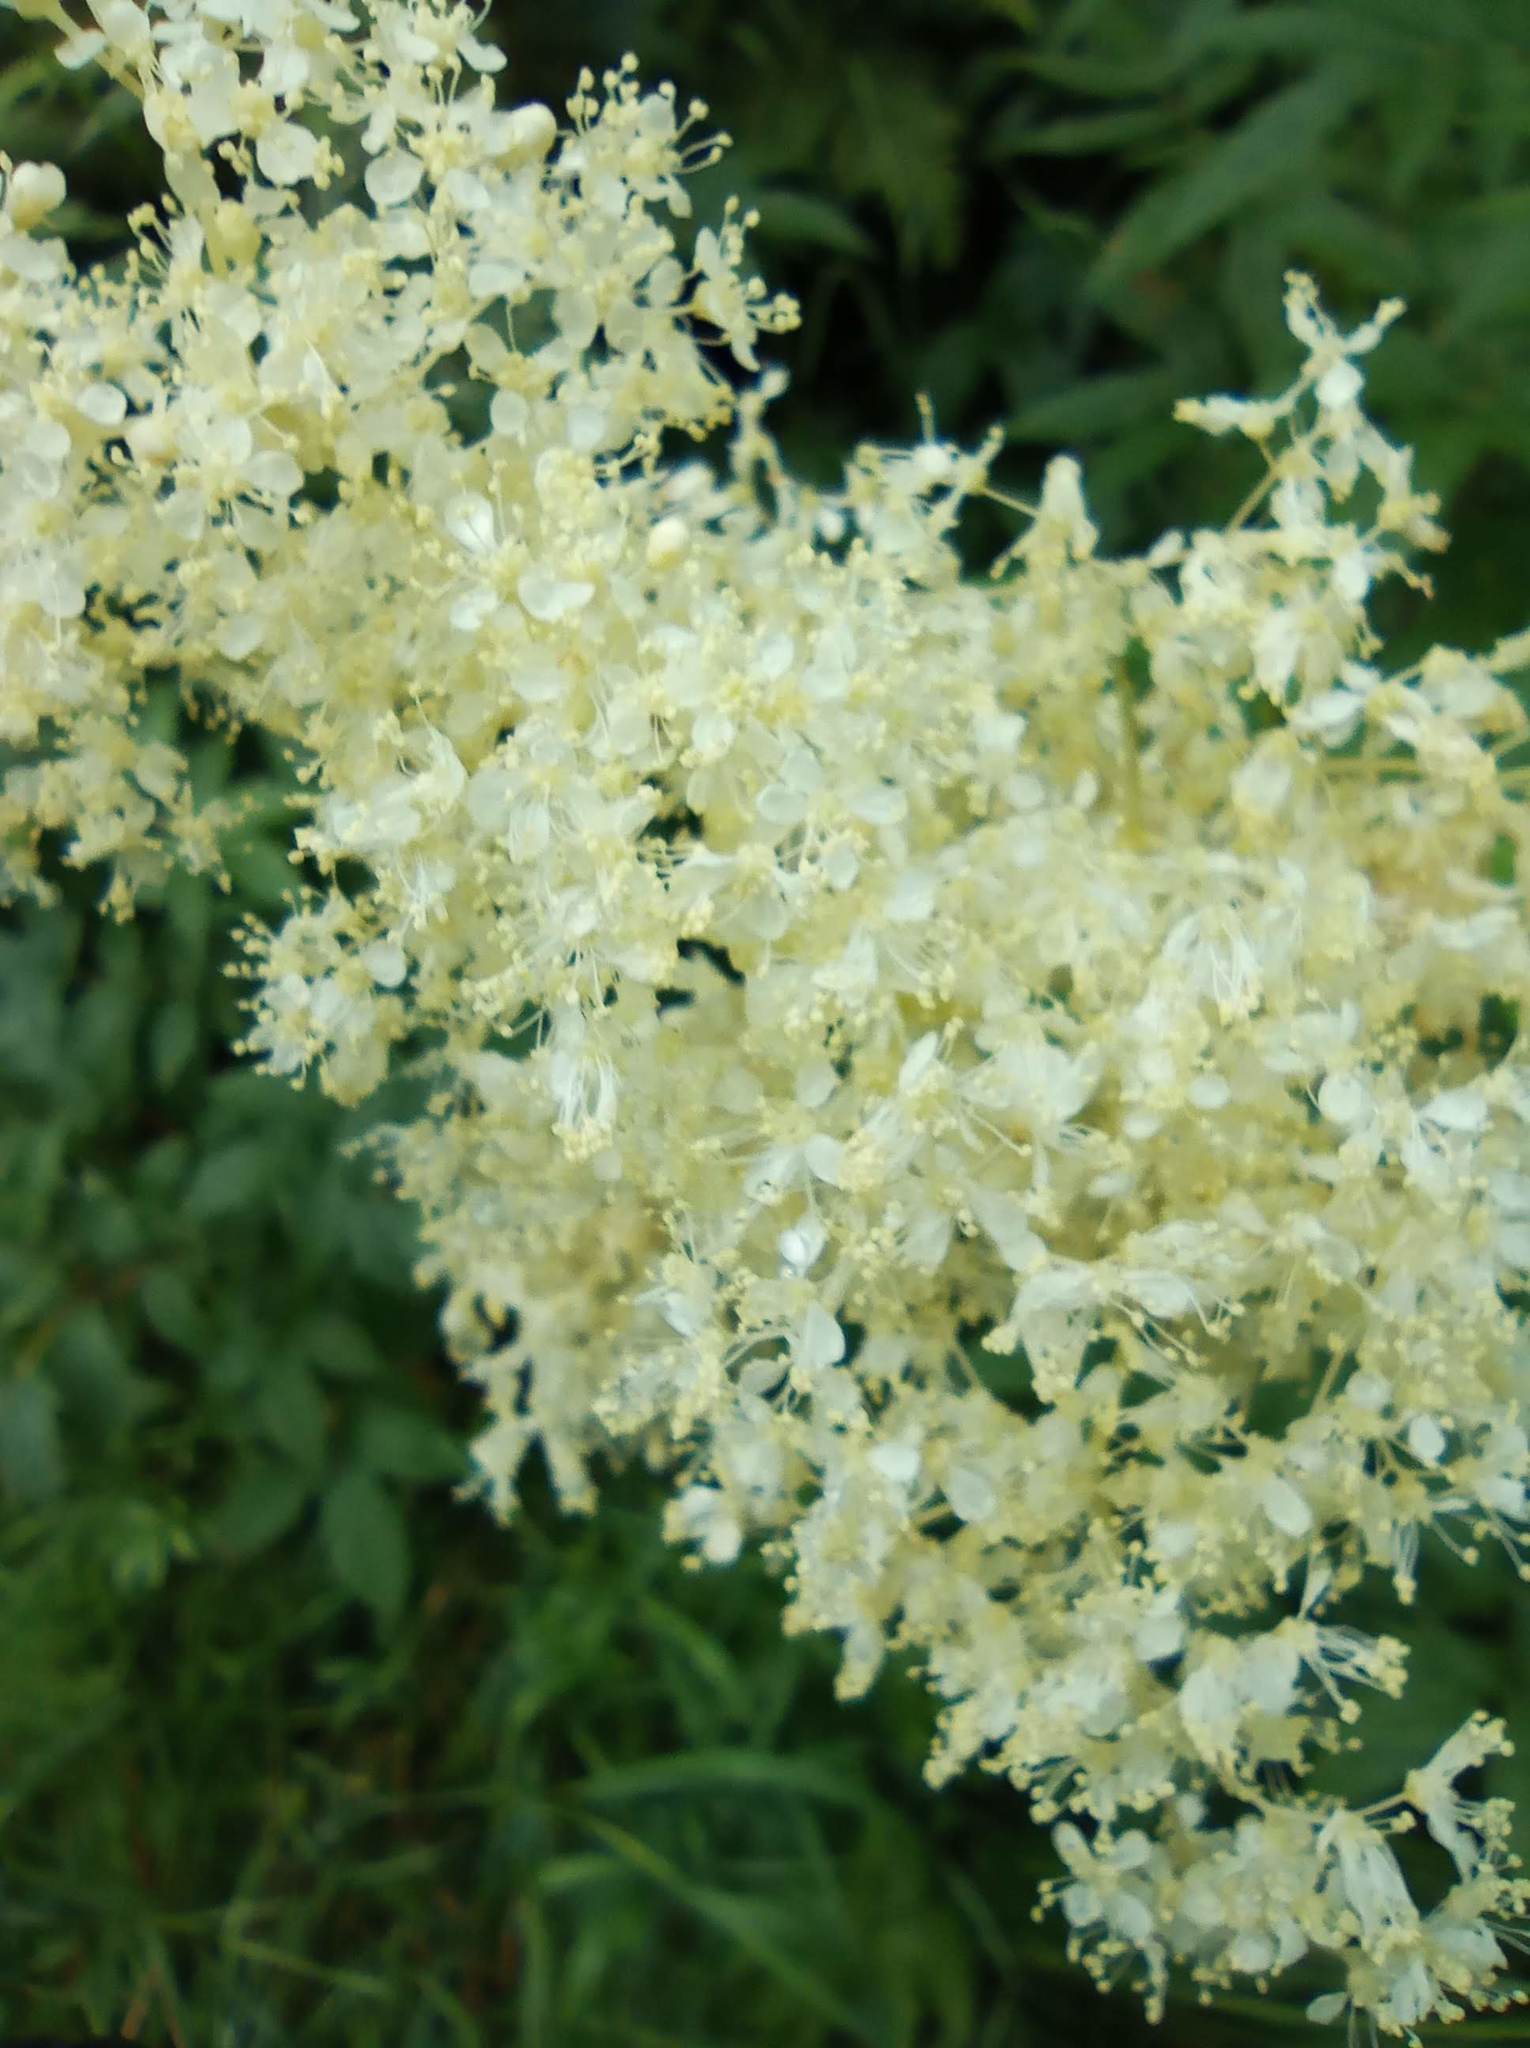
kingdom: Plantae
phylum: Tracheophyta
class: Magnoliopsida
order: Rosales
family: Rosaceae
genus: Filipendula
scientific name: Filipendula ulmaria
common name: Meadowsweet
